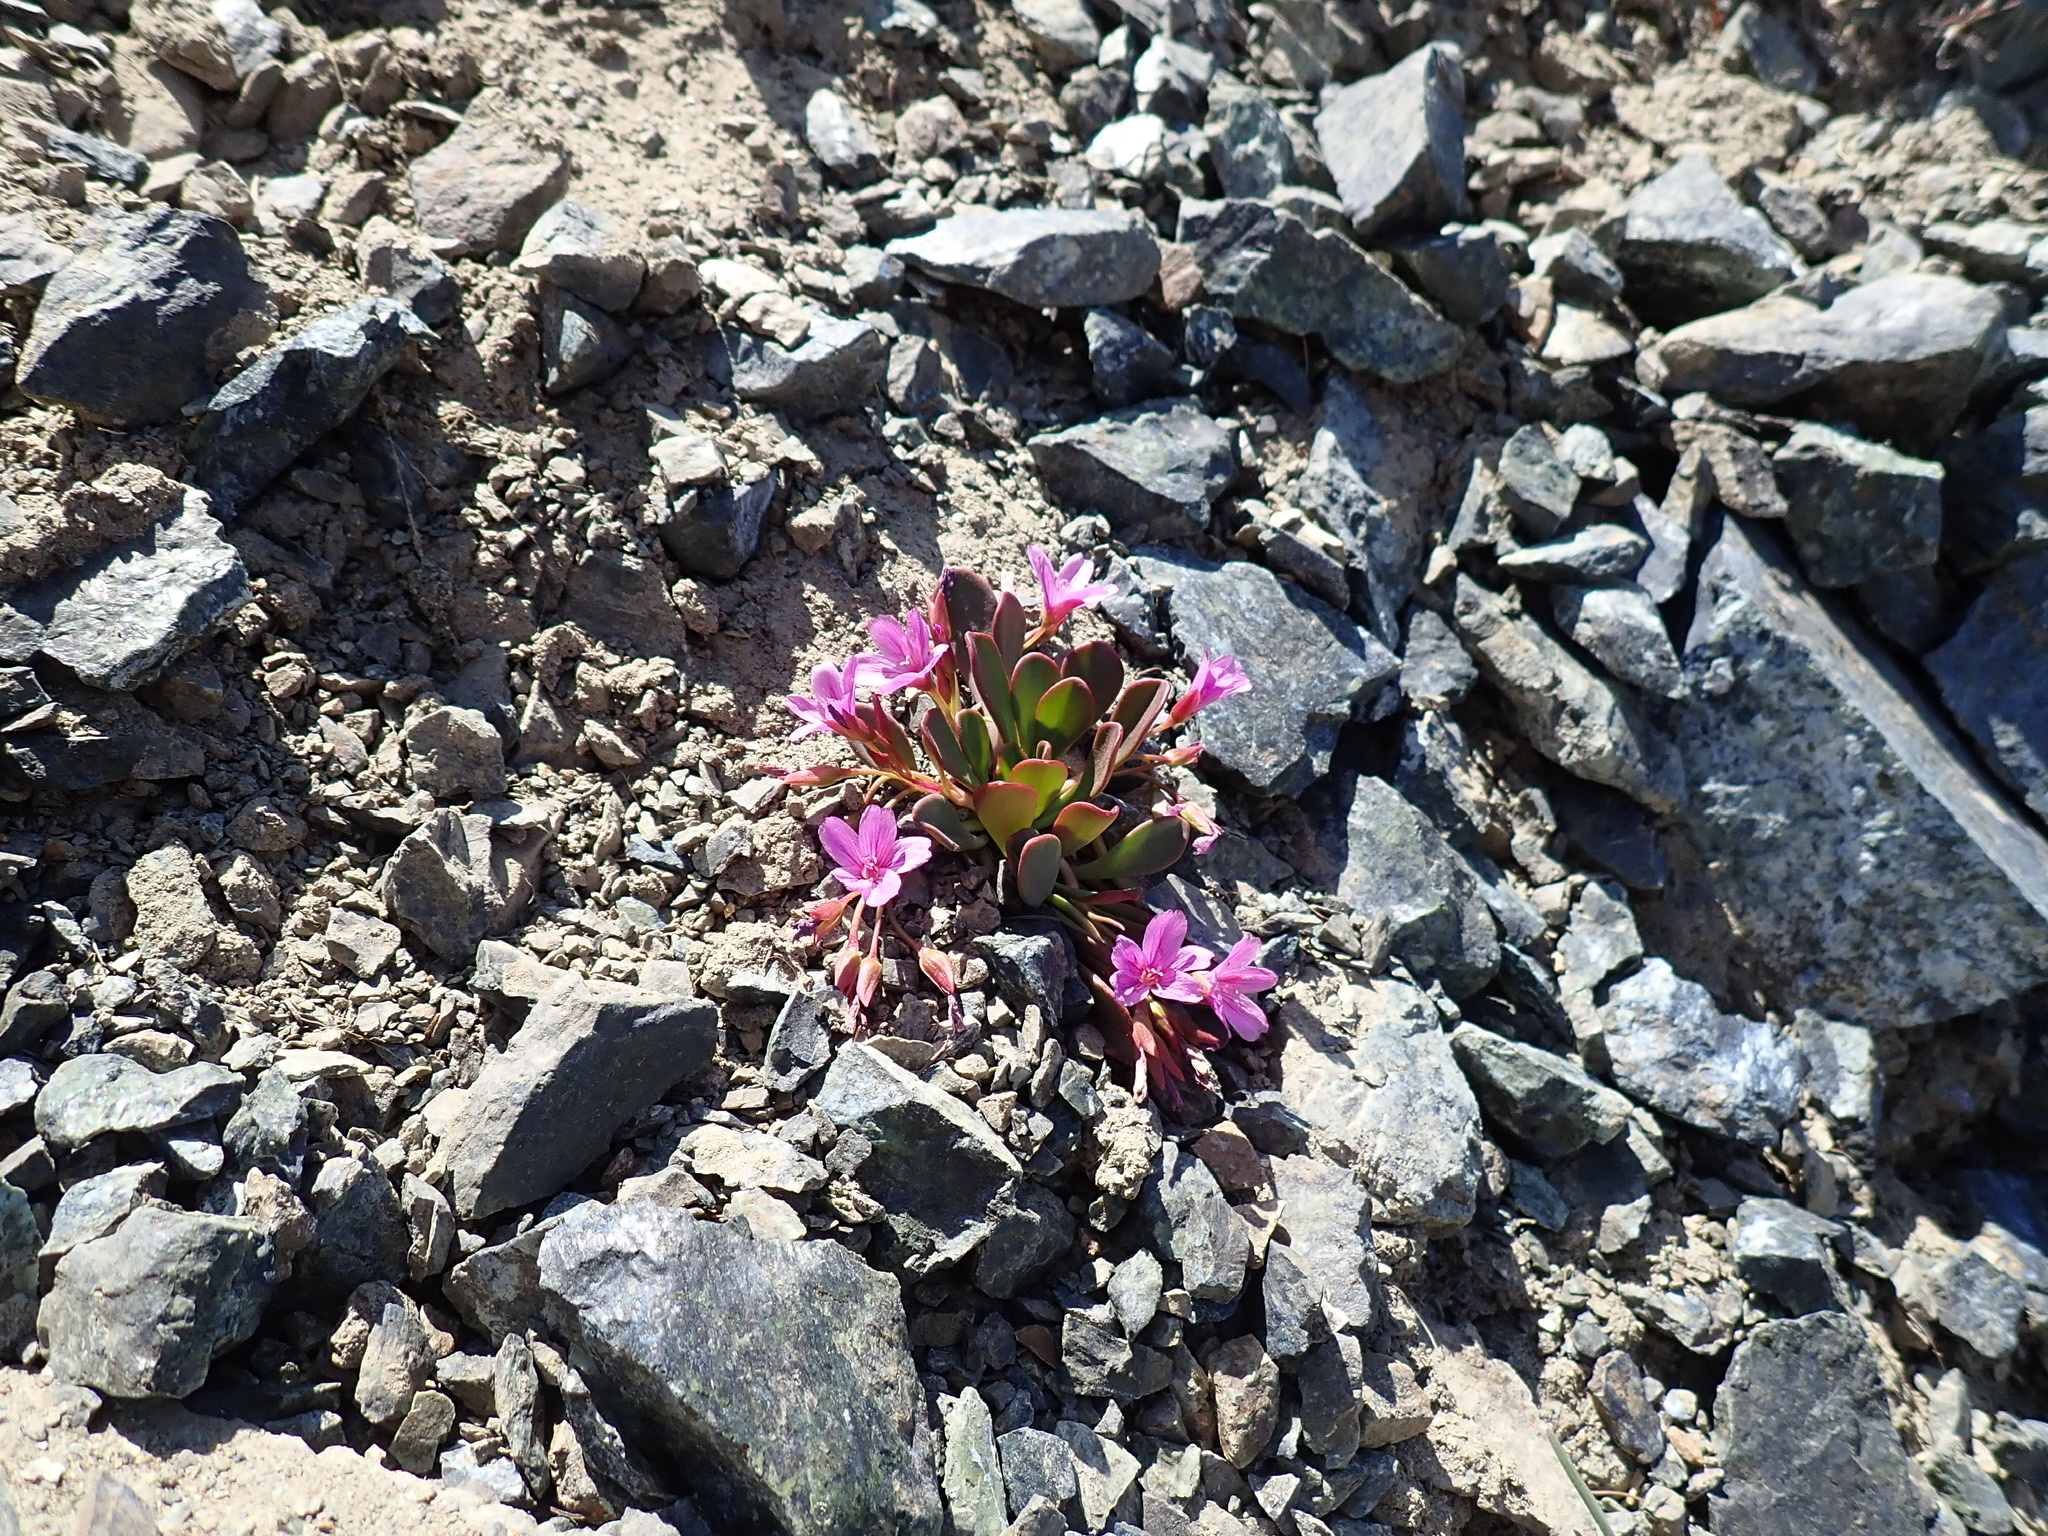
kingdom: Plantae
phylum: Tracheophyta
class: Magnoliopsida
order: Caryophyllales
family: Montiaceae
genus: Claytonia
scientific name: Claytonia megarhiza
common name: Alpine spring beauty
